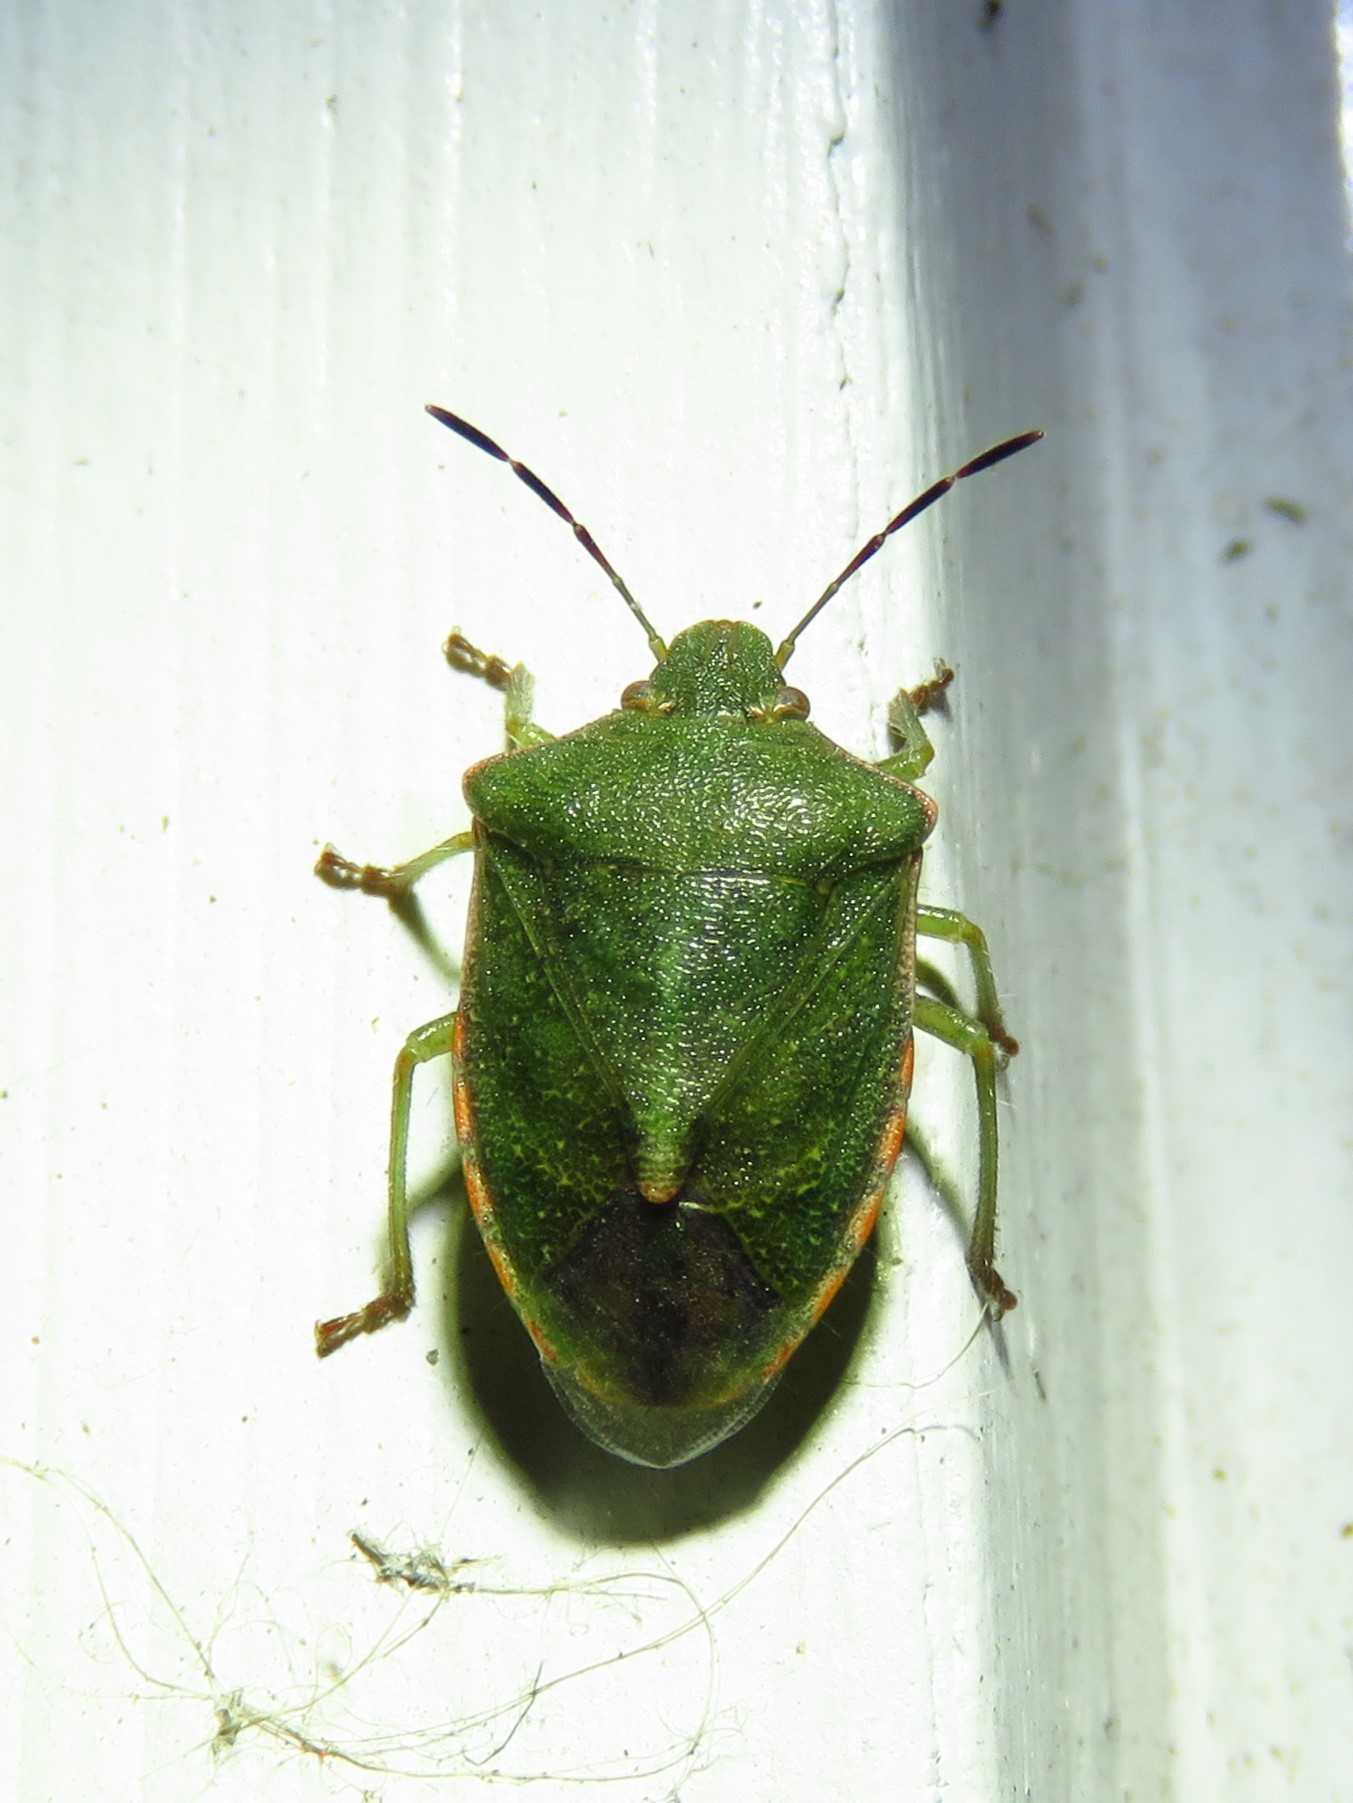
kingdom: Animalia
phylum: Arthropoda
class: Insecta
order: Hemiptera
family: Pentatomidae
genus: Thyanta
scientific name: Thyanta custator
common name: Stink bug
